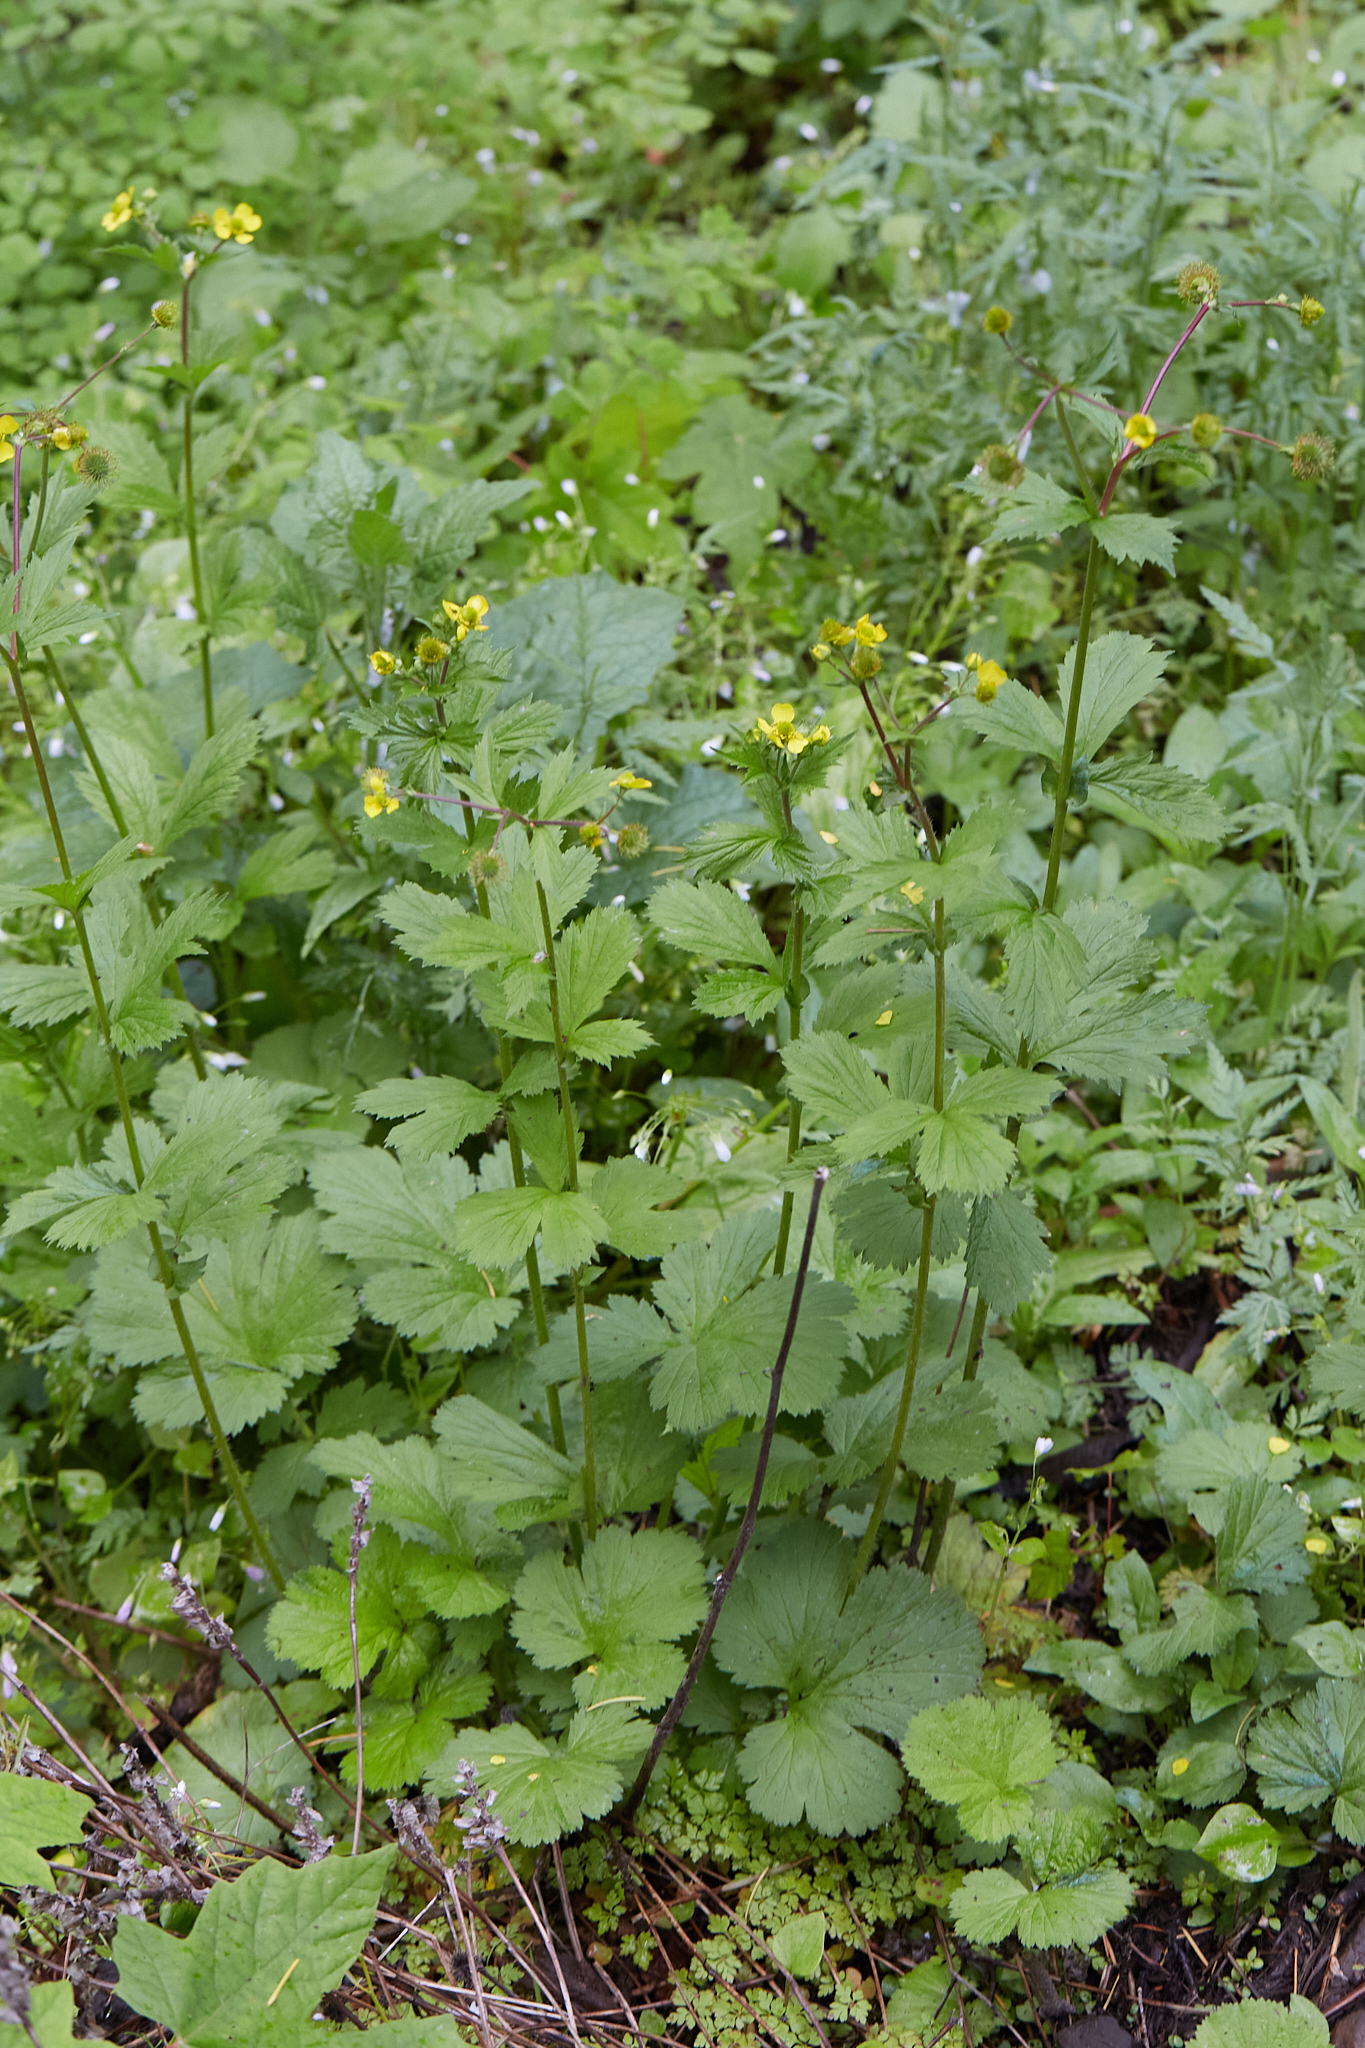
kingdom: Plantae
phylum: Tracheophyta
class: Magnoliopsida
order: Rosales
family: Rosaceae
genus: Geum
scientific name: Geum macrophyllum
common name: Large-leaved avens
